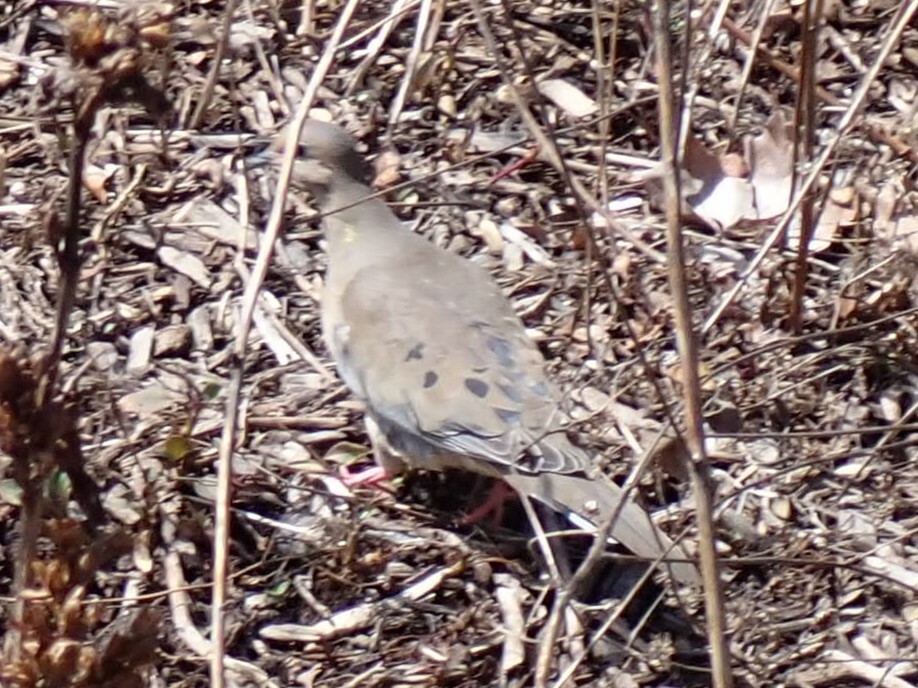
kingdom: Animalia
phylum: Chordata
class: Aves
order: Columbiformes
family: Columbidae
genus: Zenaida
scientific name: Zenaida macroura
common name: Mourning dove
